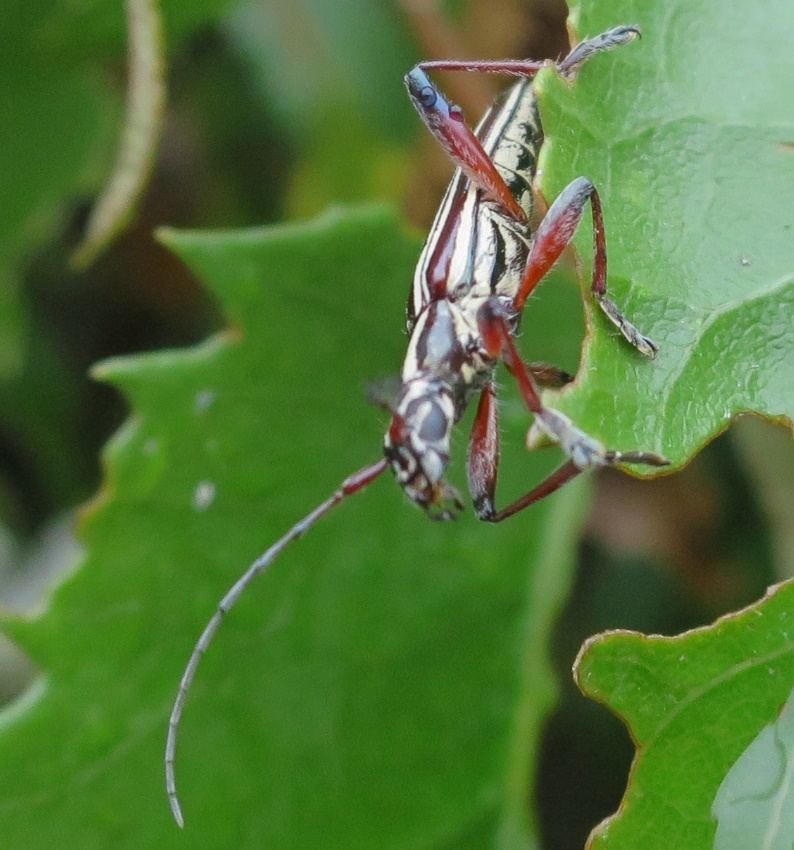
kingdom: Animalia
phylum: Arthropoda
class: Insecta
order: Coleoptera
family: Cerambycidae
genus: Coptomma
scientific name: Coptomma lineatum
